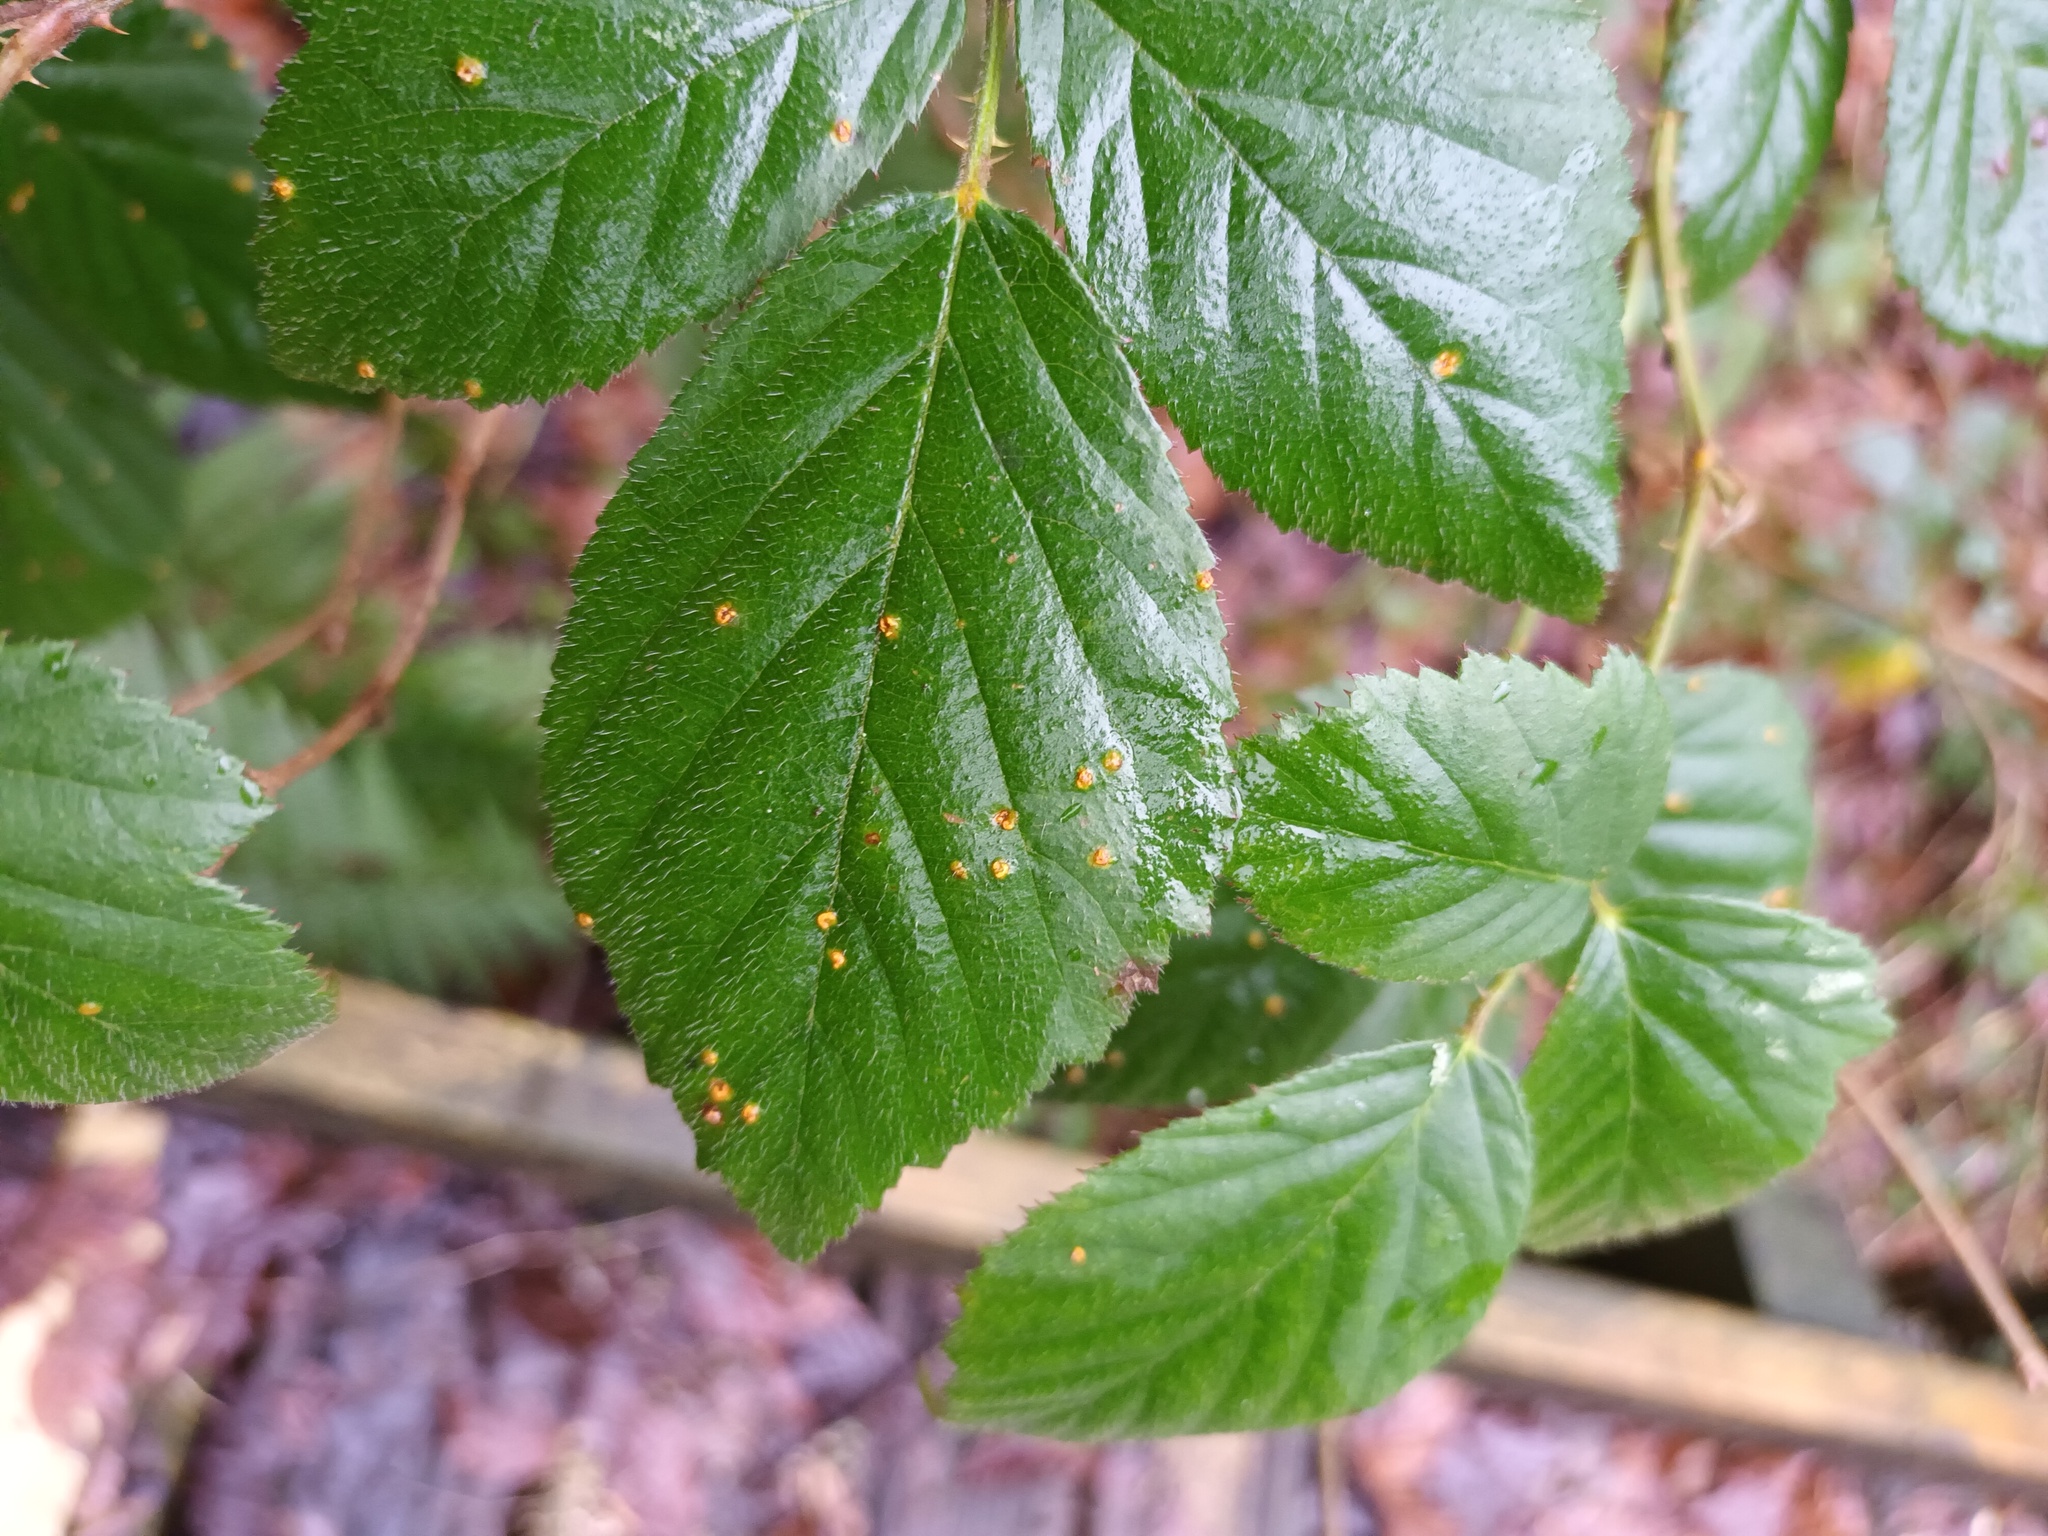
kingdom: Fungi
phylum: Basidiomycota
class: Pucciniomycetes
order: Pucciniales
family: Phragmidiaceae
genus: Kuehneola
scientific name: Kuehneola uredinis
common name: Bramble stem rust
